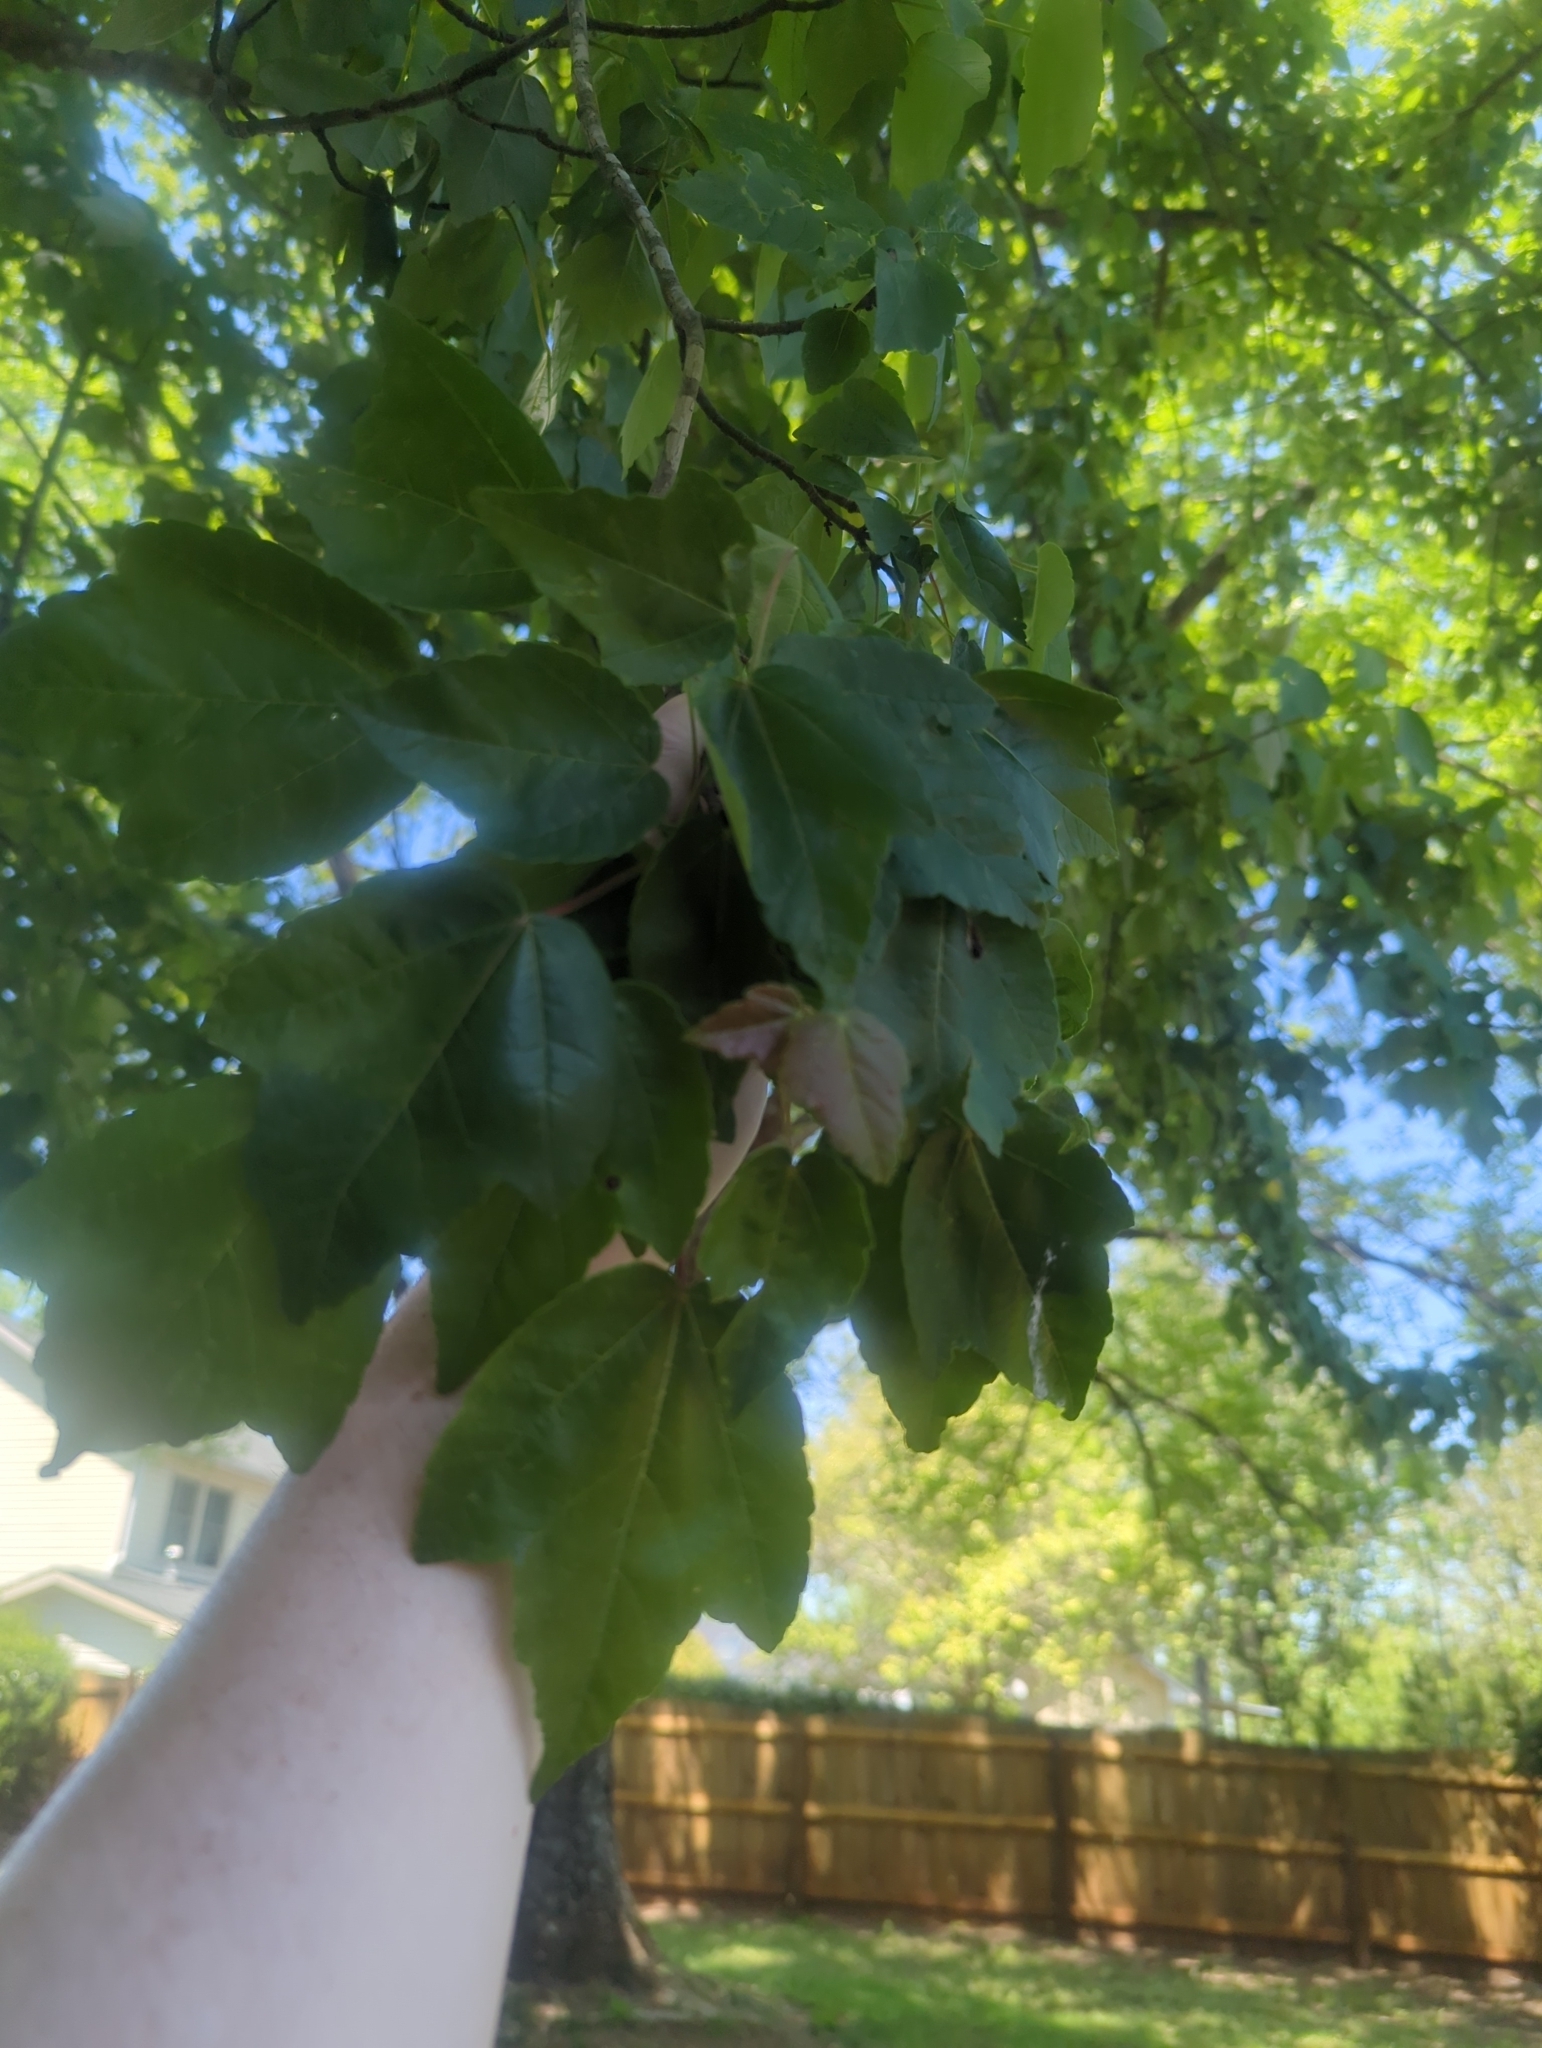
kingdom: Plantae
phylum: Tracheophyta
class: Magnoliopsida
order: Sapindales
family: Sapindaceae
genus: Acer
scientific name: Acer rubrum
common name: Red maple
